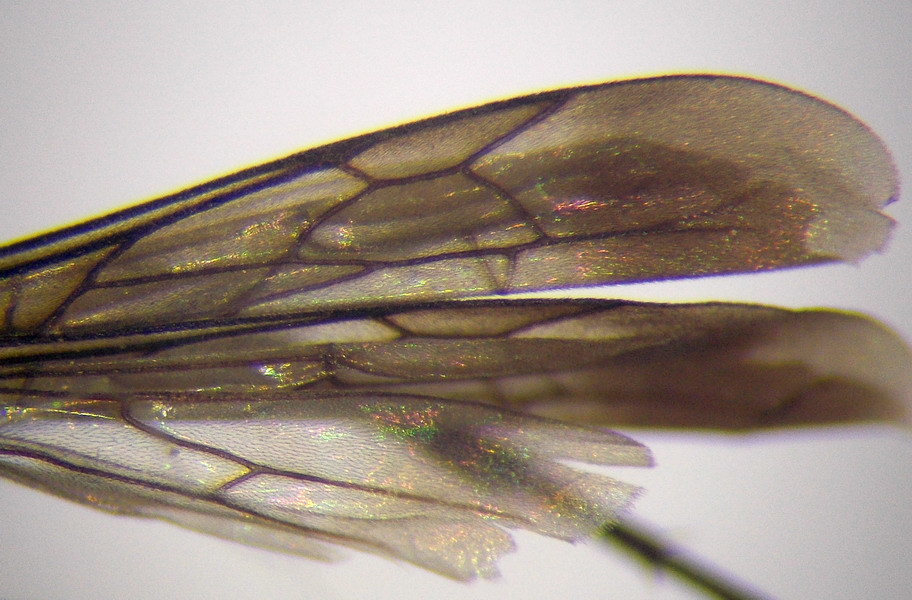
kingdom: Animalia
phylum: Arthropoda
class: Insecta
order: Hymenoptera
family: Pompilidae
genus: Telostegus
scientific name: Telostegus inermis
